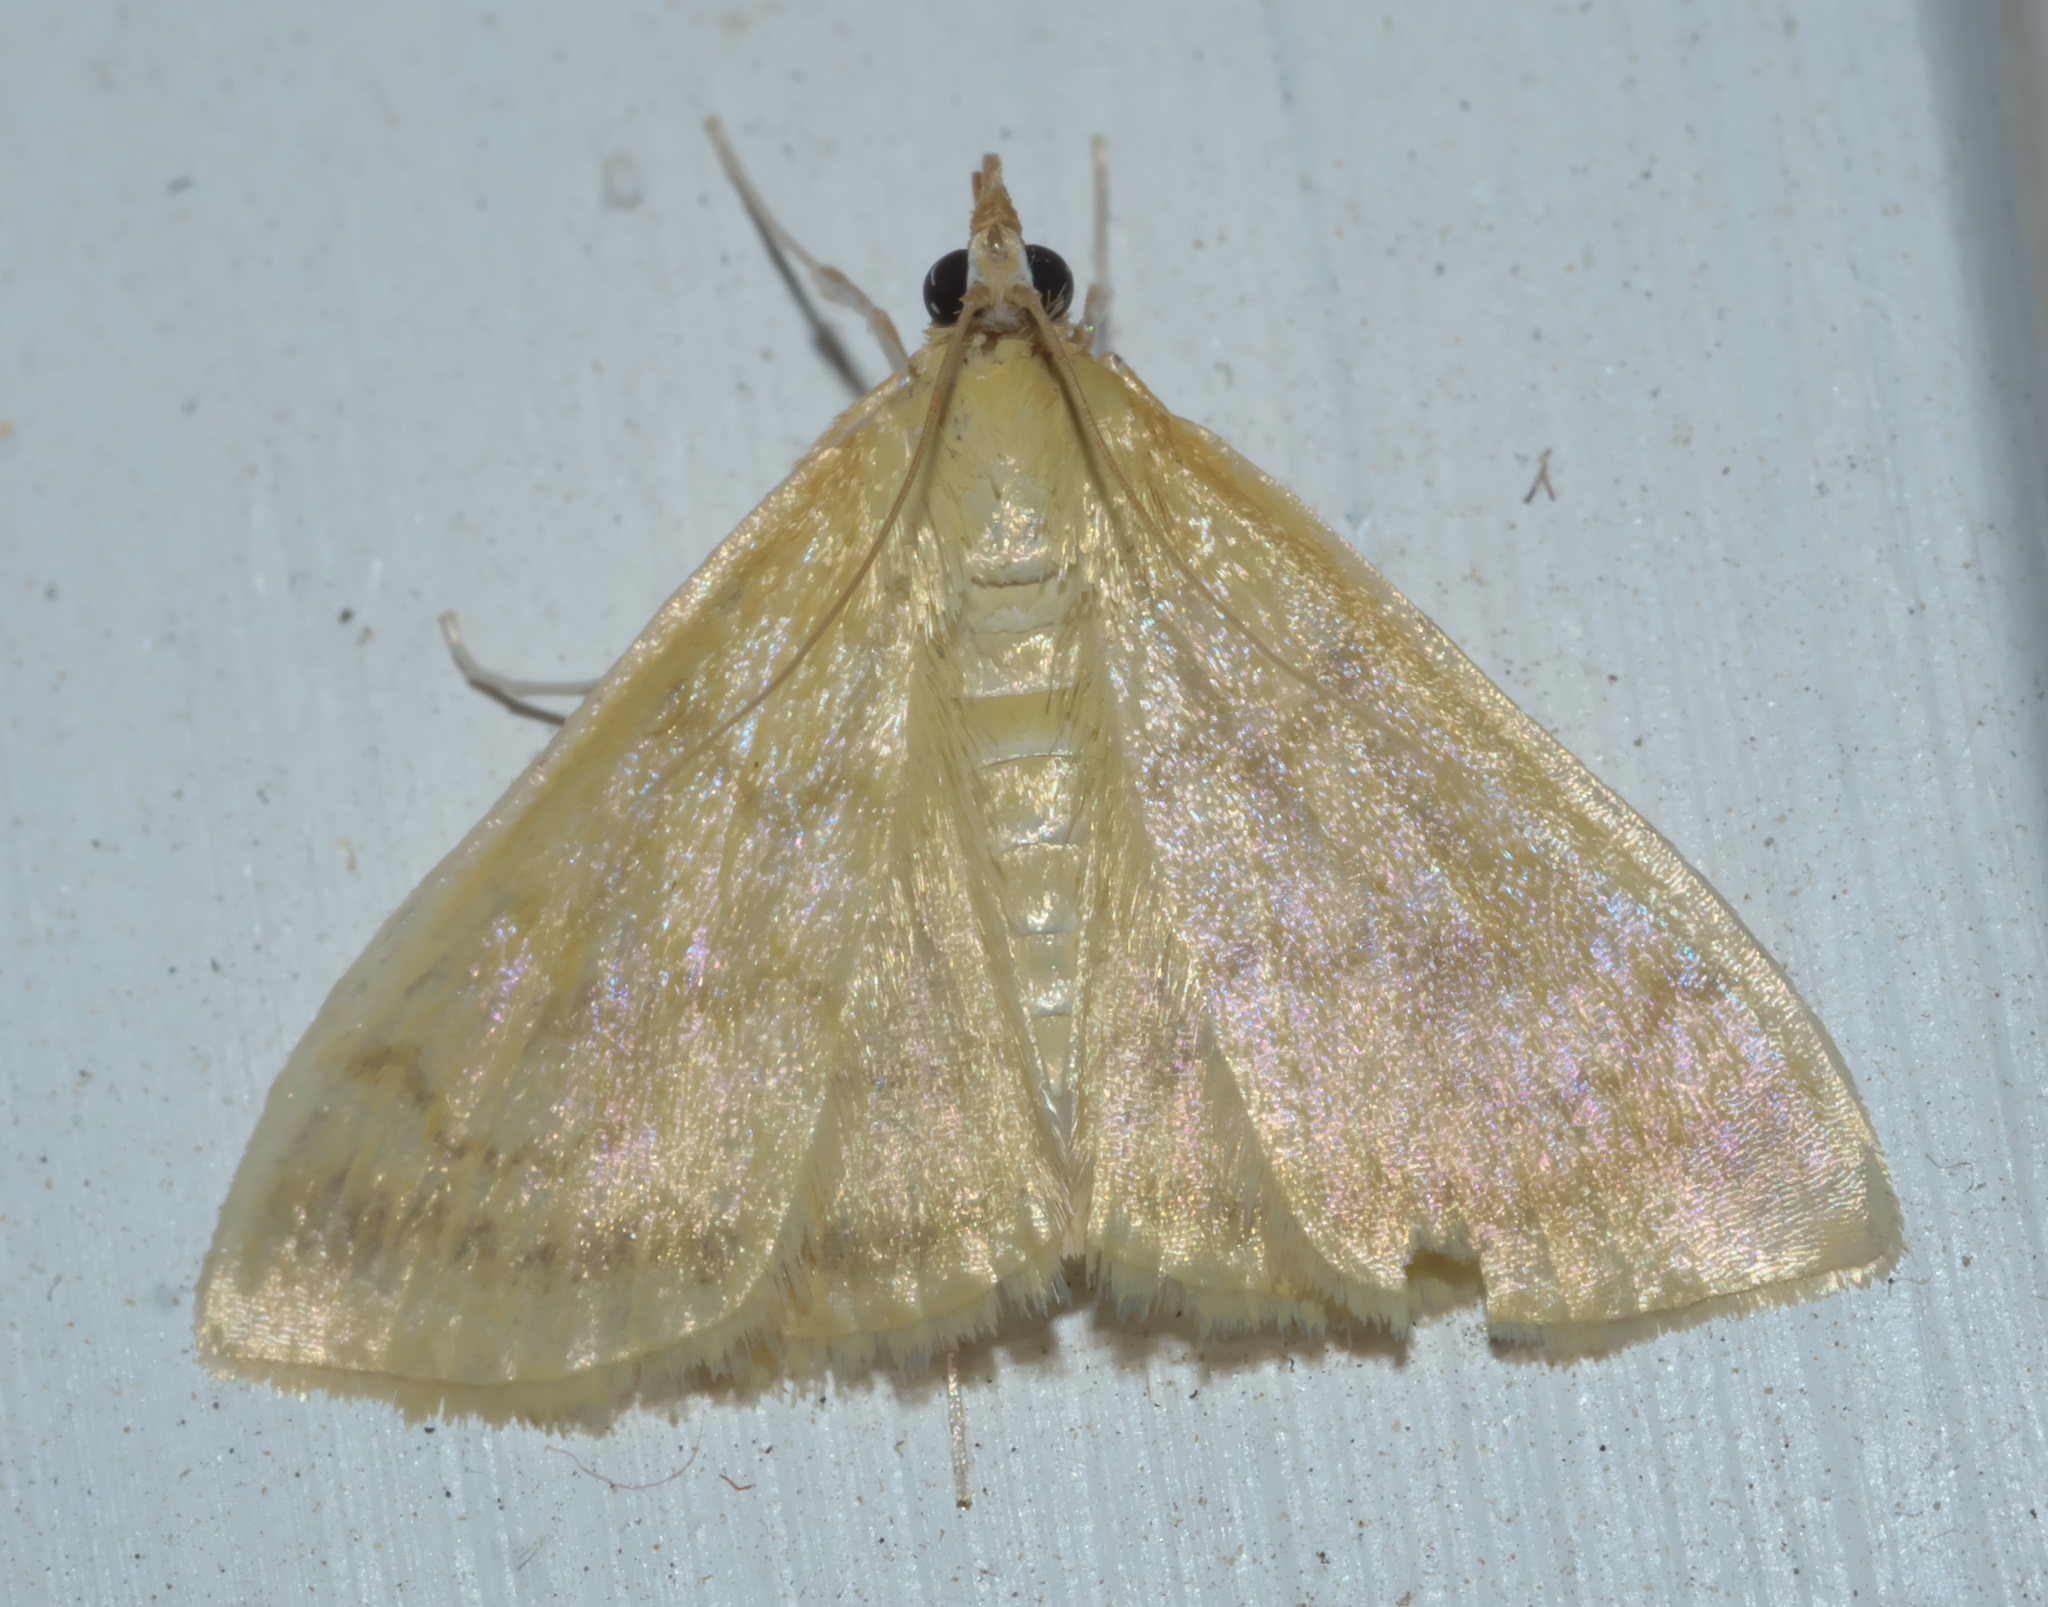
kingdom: Animalia
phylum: Arthropoda
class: Insecta
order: Lepidoptera
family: Crambidae
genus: Hahncappsia
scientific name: Hahncappsia mancalis
